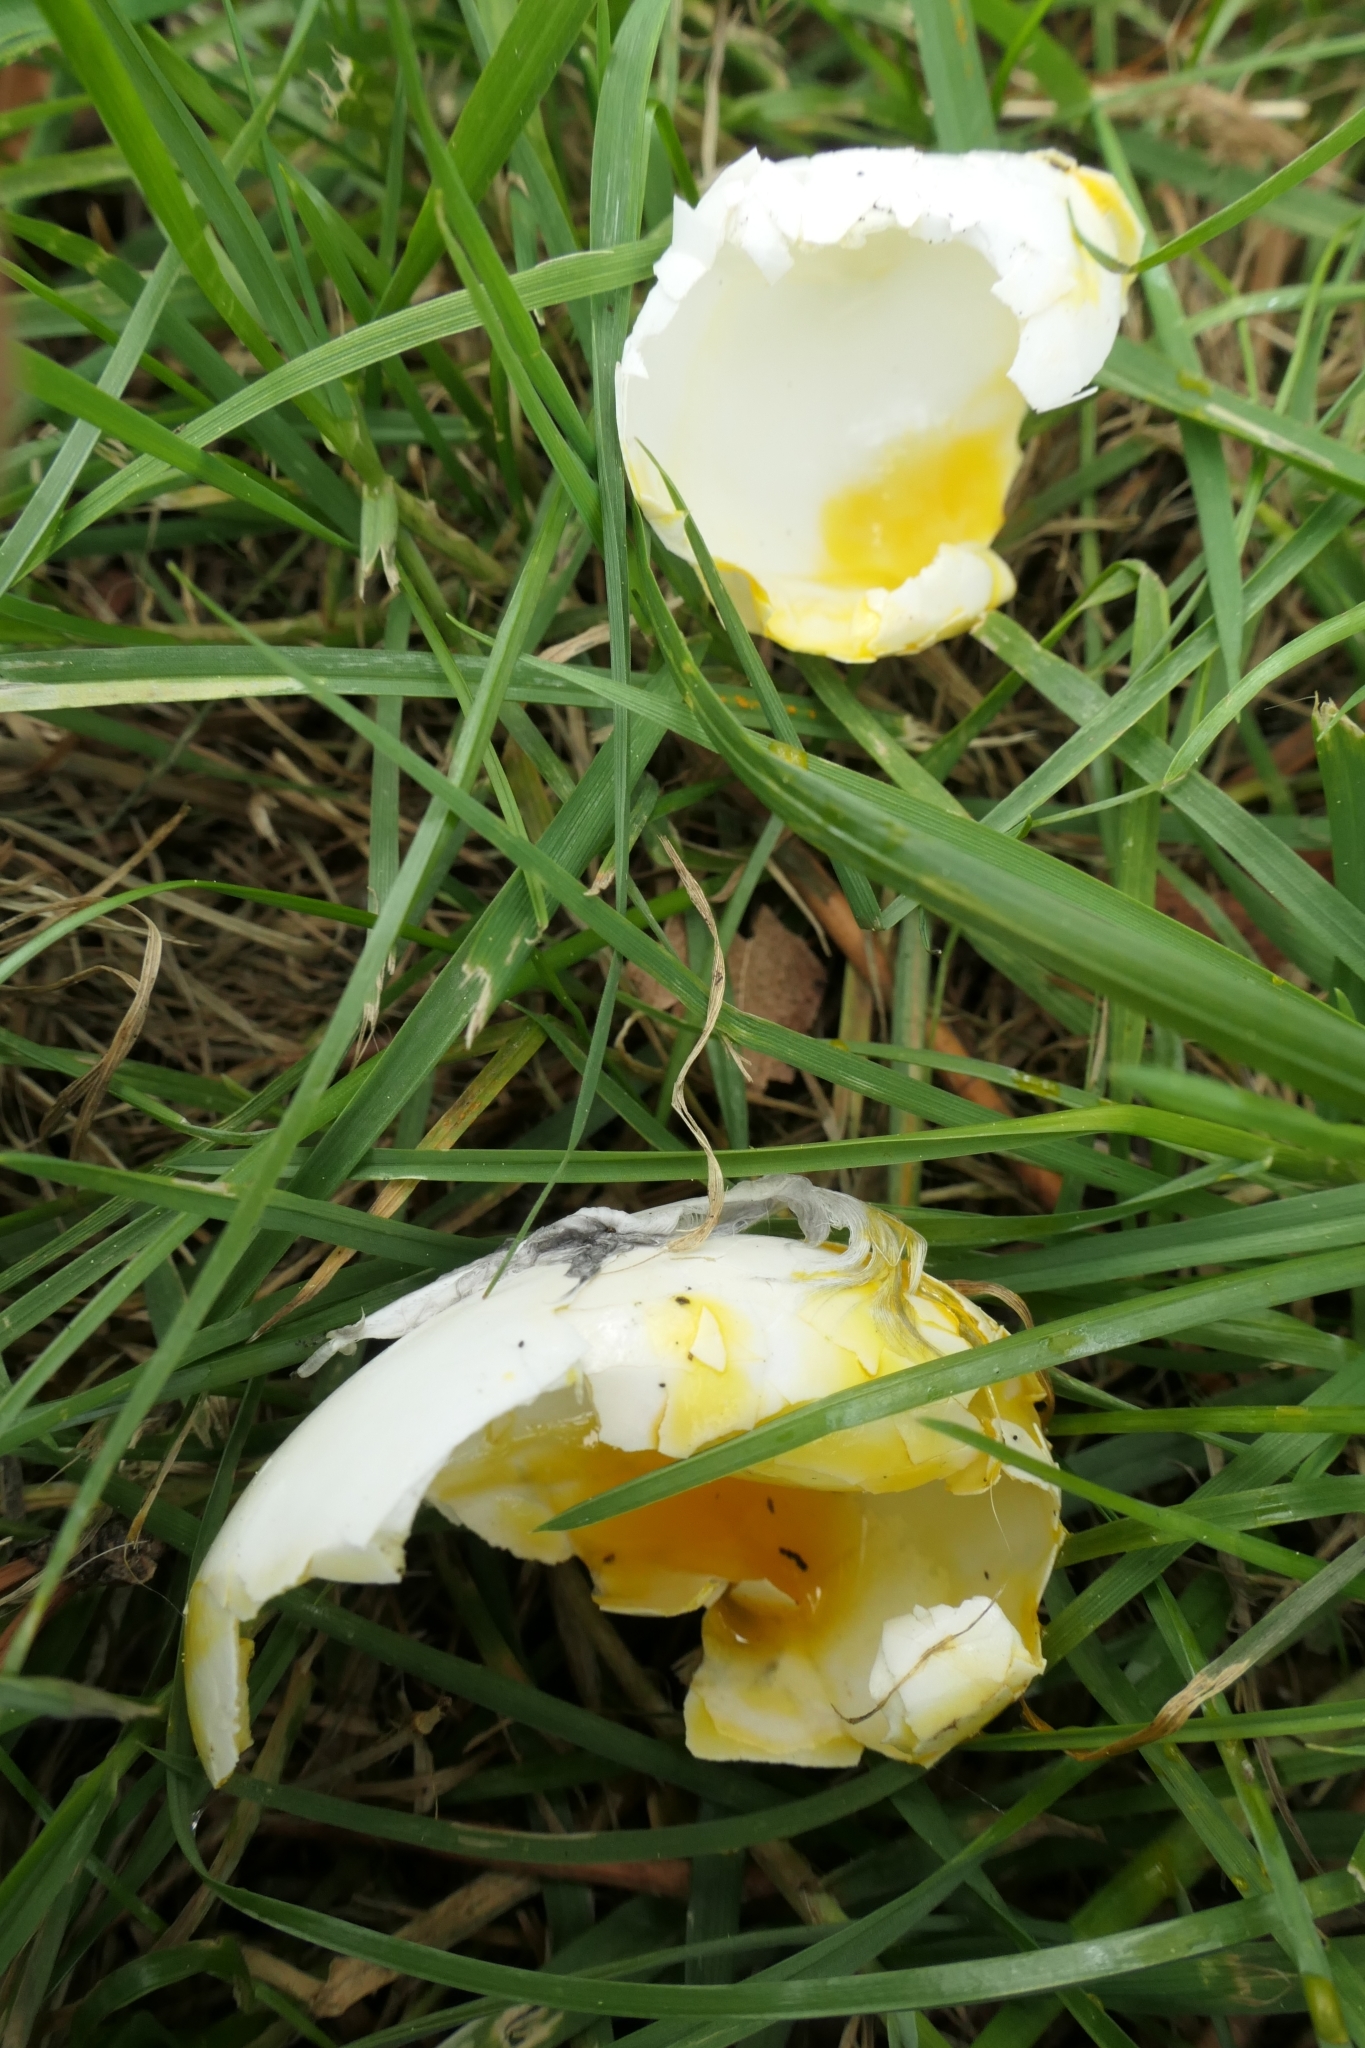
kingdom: Animalia
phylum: Chordata
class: Aves
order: Columbiformes
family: Columbidae
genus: Columba
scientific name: Columba livia
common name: Rock pigeon
